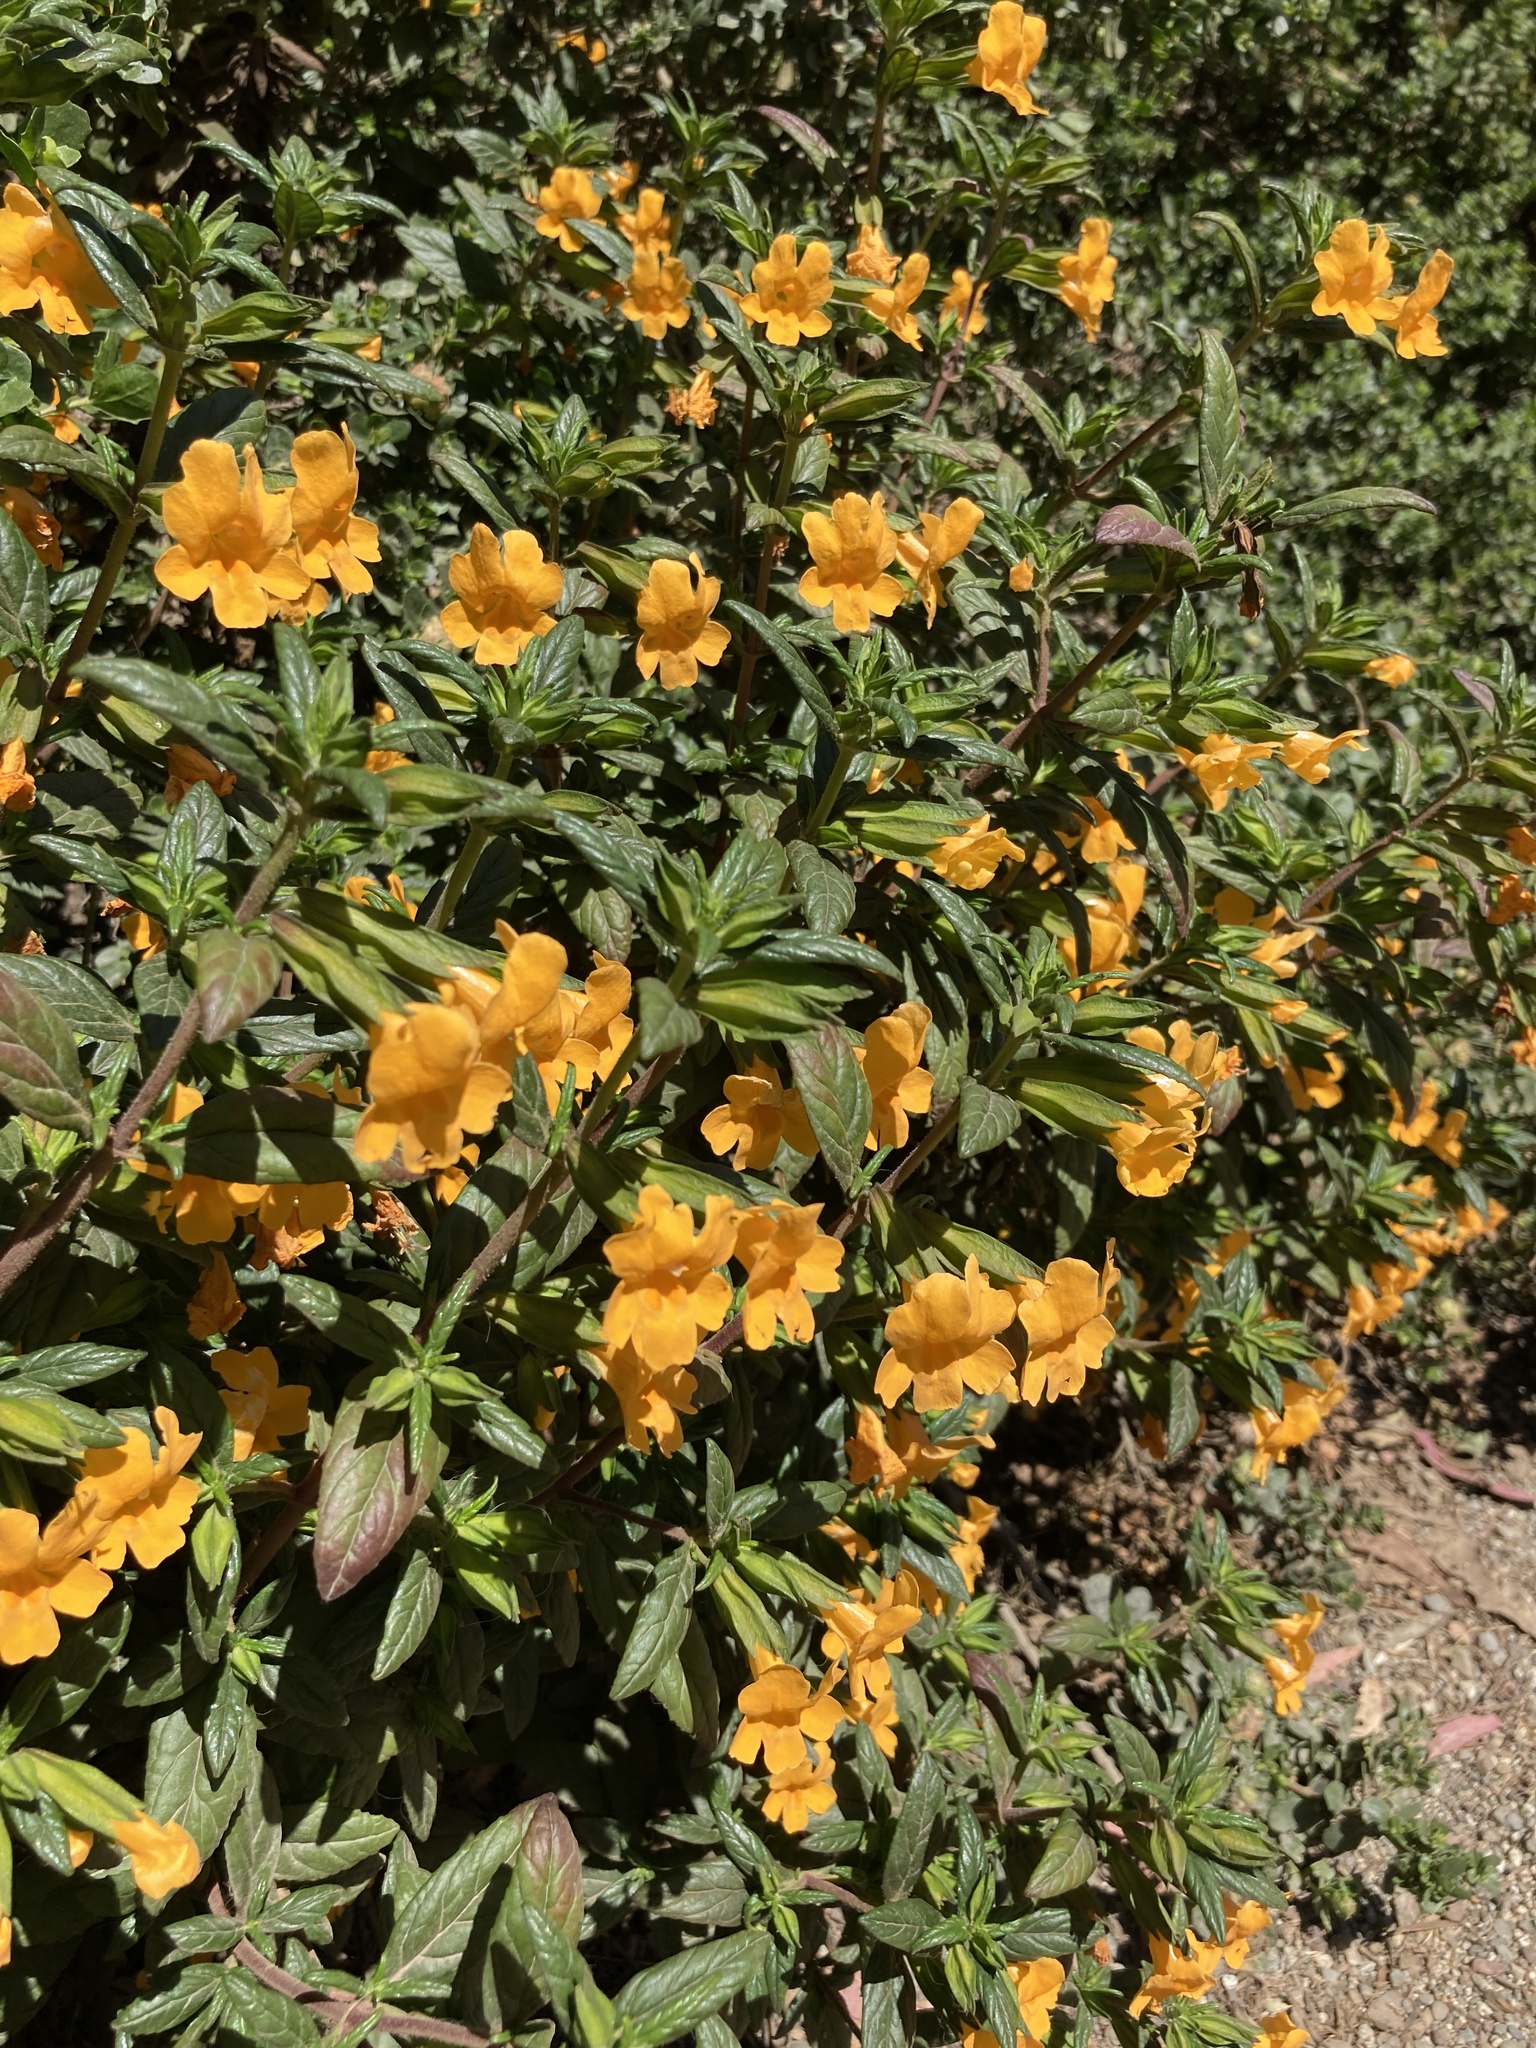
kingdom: Plantae
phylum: Tracheophyta
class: Magnoliopsida
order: Lamiales
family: Phrymaceae
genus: Diplacus
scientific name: Diplacus aurantiacus
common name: Bush monkey-flower
